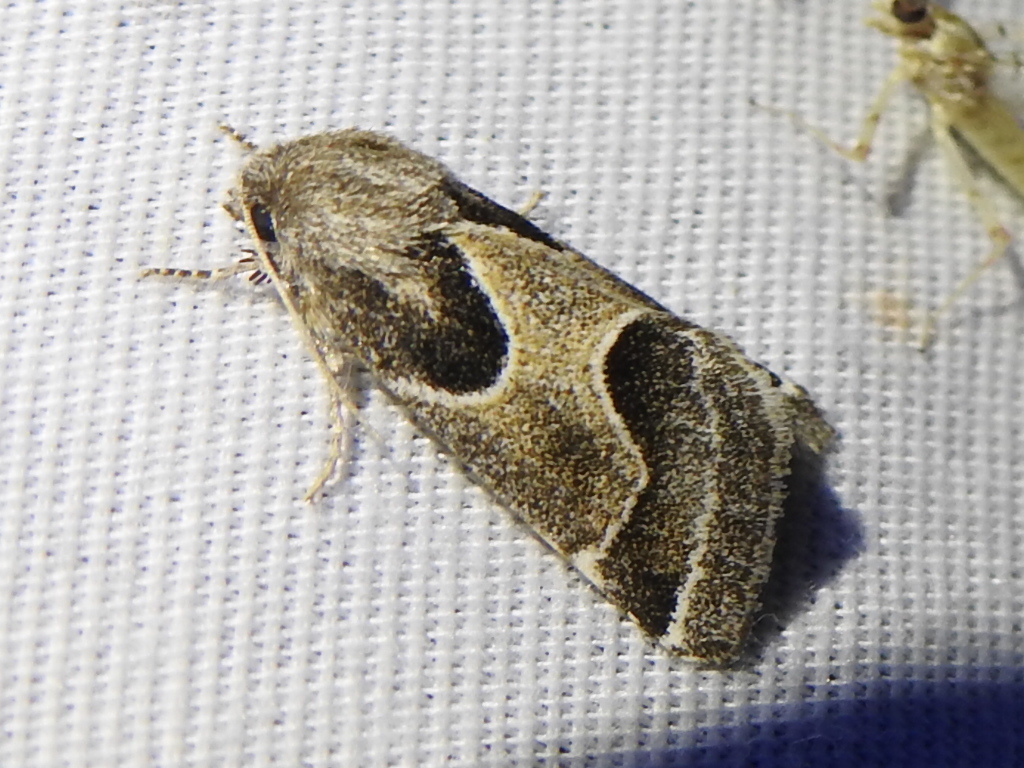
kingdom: Animalia
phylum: Arthropoda
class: Insecta
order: Lepidoptera
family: Noctuidae
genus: Schinia
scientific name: Schinia rivulosa
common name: Scarce meal-moth
